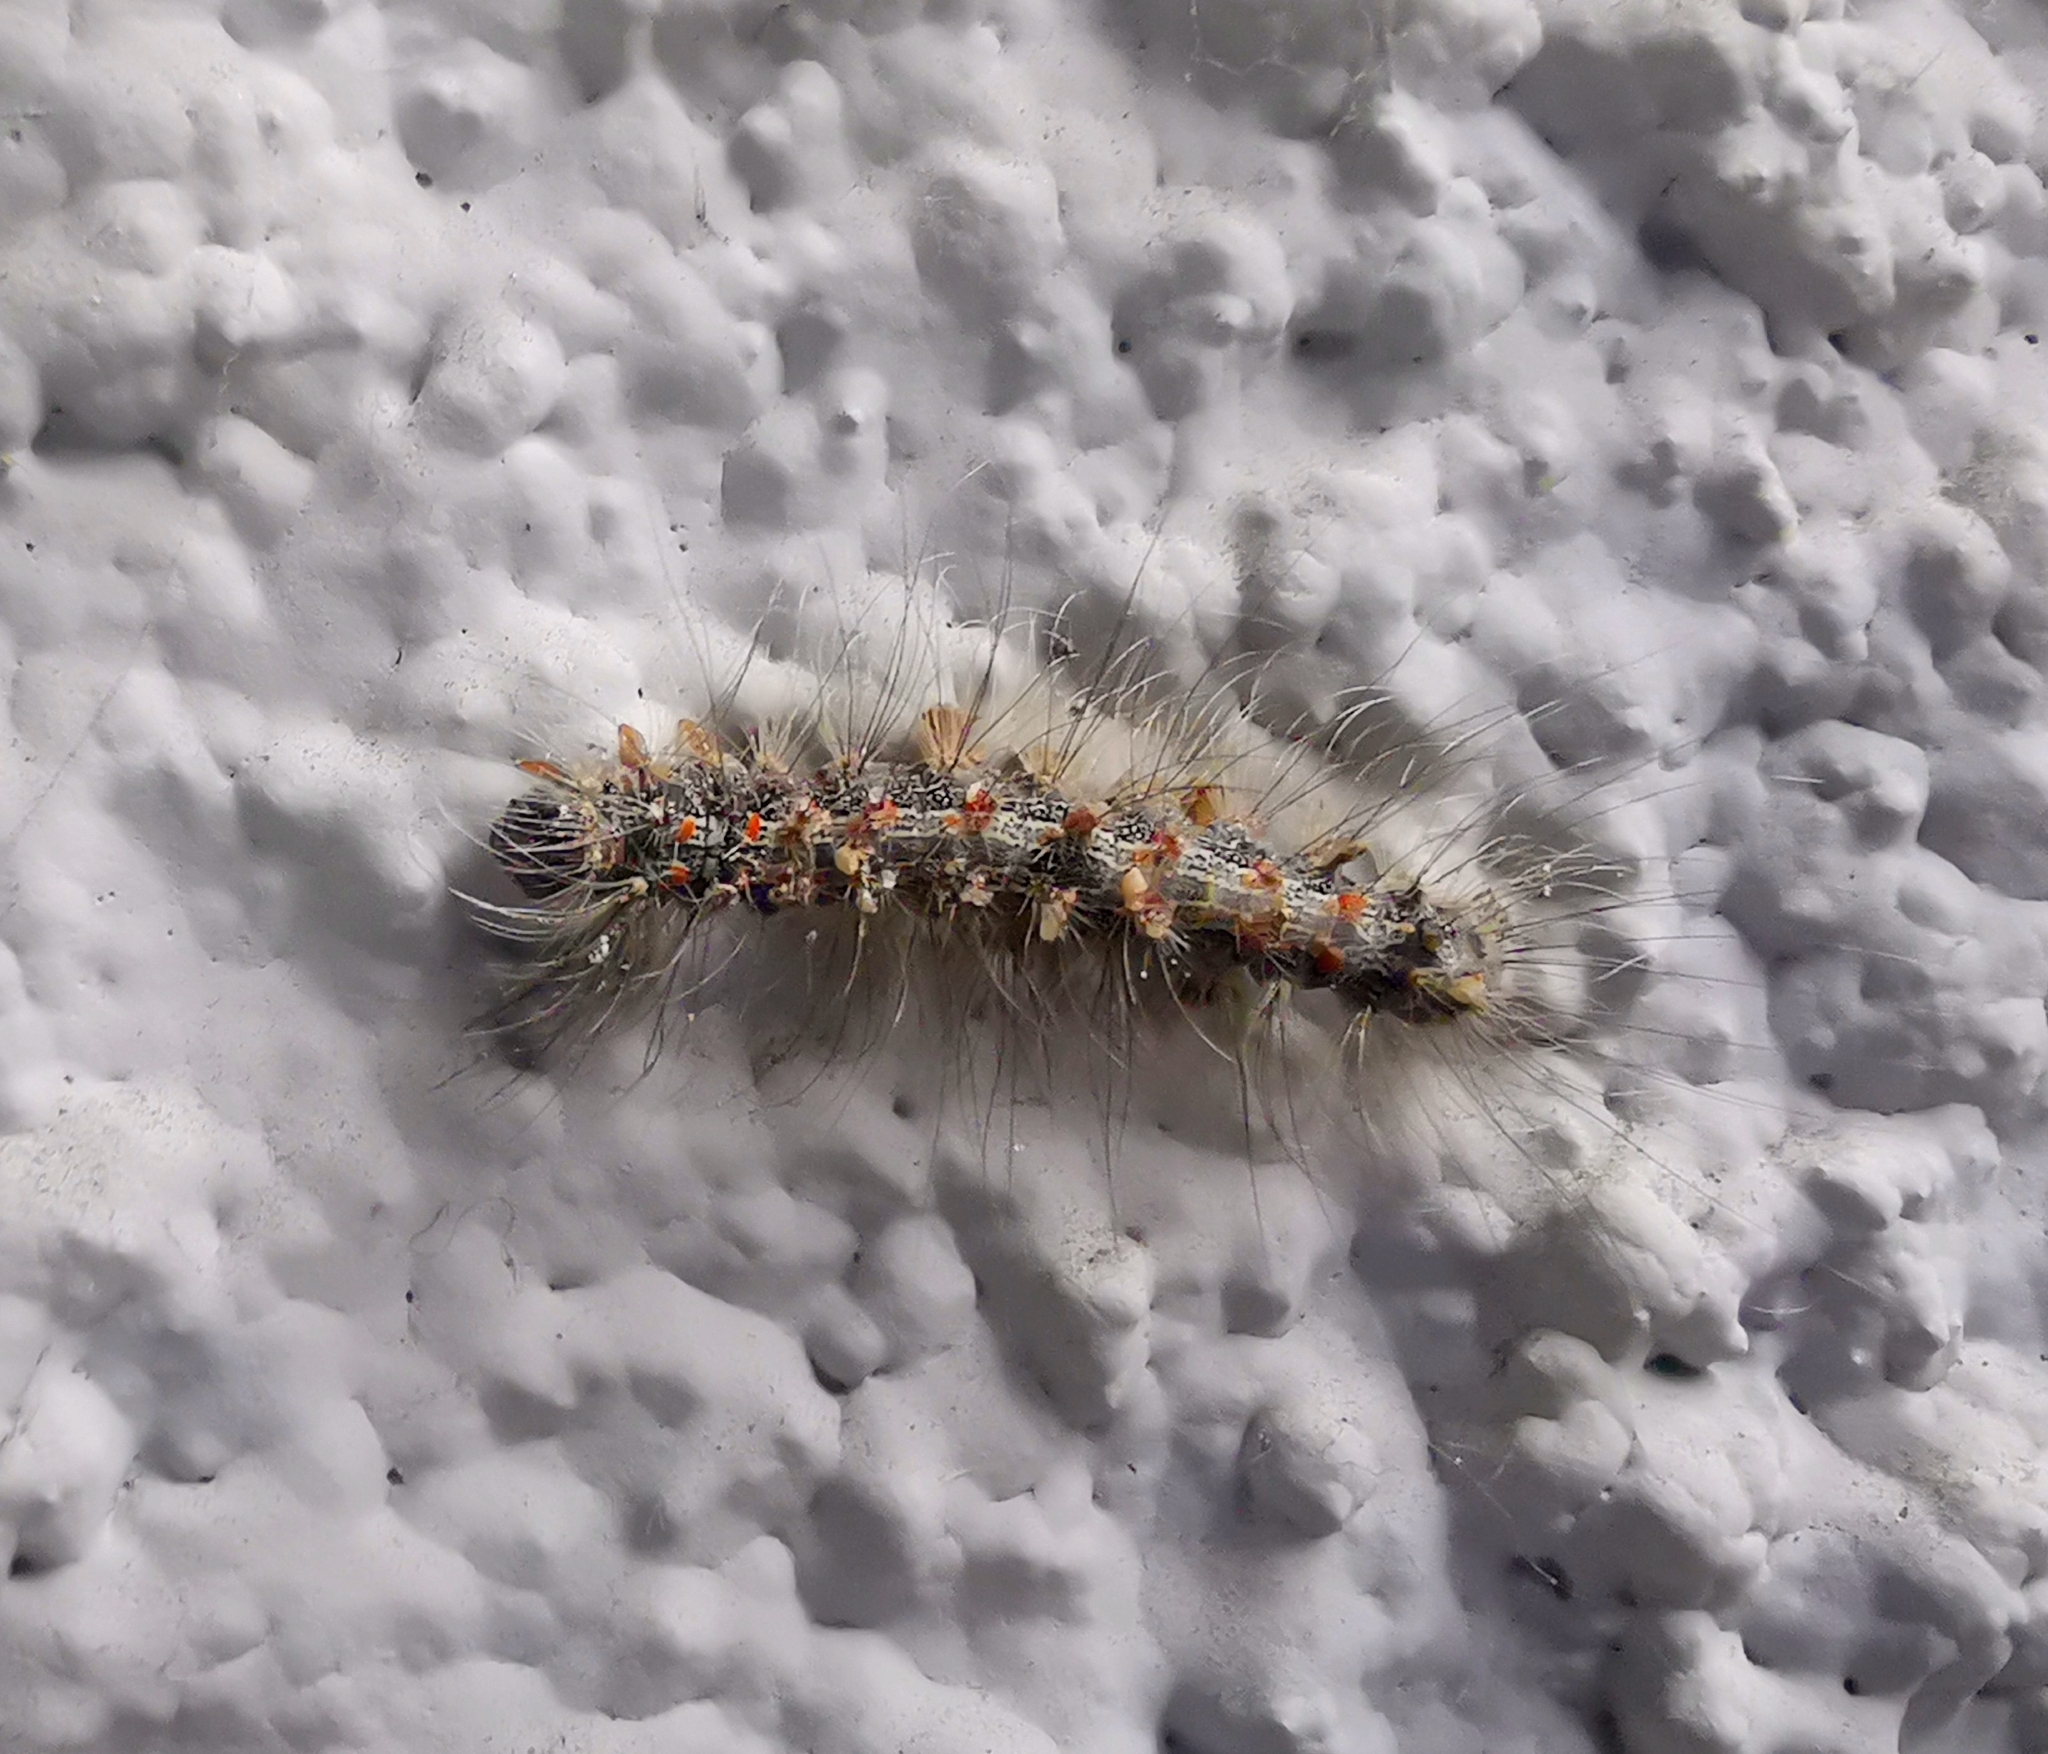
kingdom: Animalia
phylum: Arthropoda
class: Insecta
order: Lepidoptera
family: Erebidae
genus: Lymantria
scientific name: Lymantria dispar
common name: Gypsy moth
